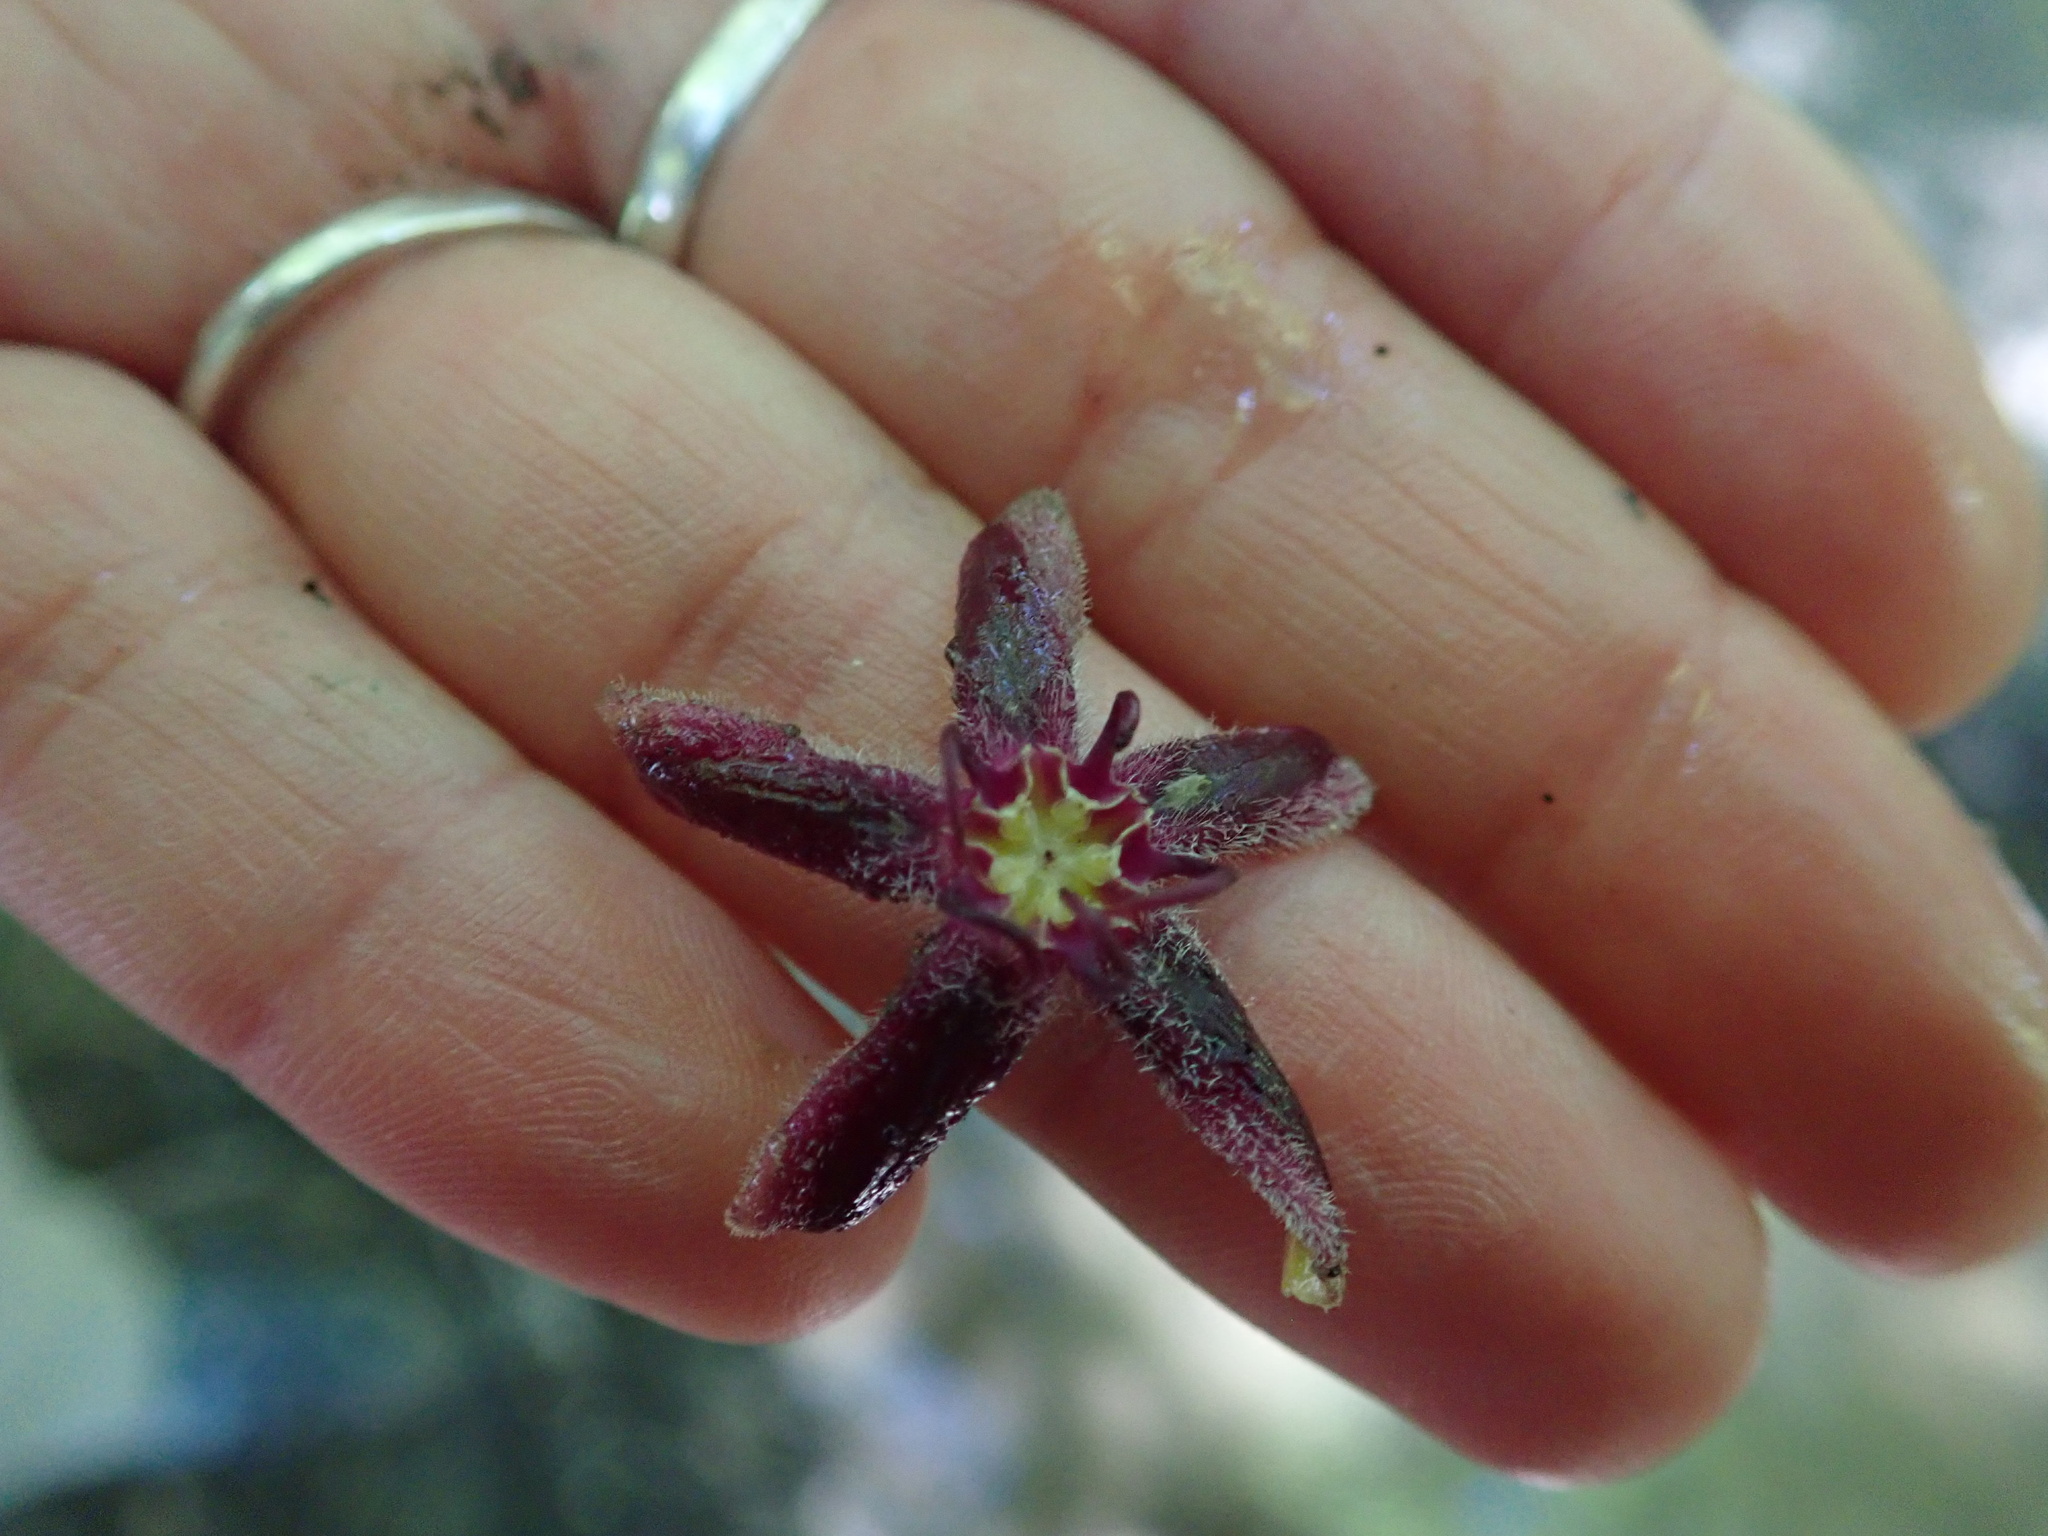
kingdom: Plantae
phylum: Tracheophyta
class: Magnoliopsida
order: Gentianales
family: Apocynaceae
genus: Periploca
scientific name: Periploca graeca
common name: Silkvine
